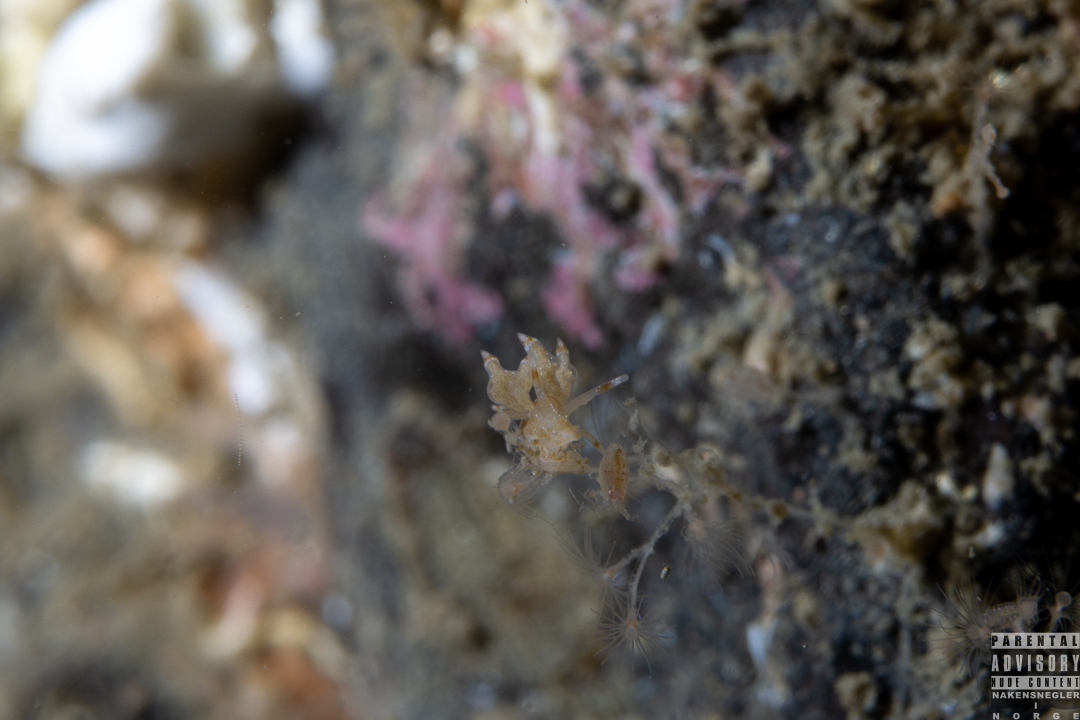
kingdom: Animalia
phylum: Mollusca
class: Gastropoda
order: Nudibranchia
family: Eubranchidae
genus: Eubranchus
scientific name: Eubranchus scintillans
